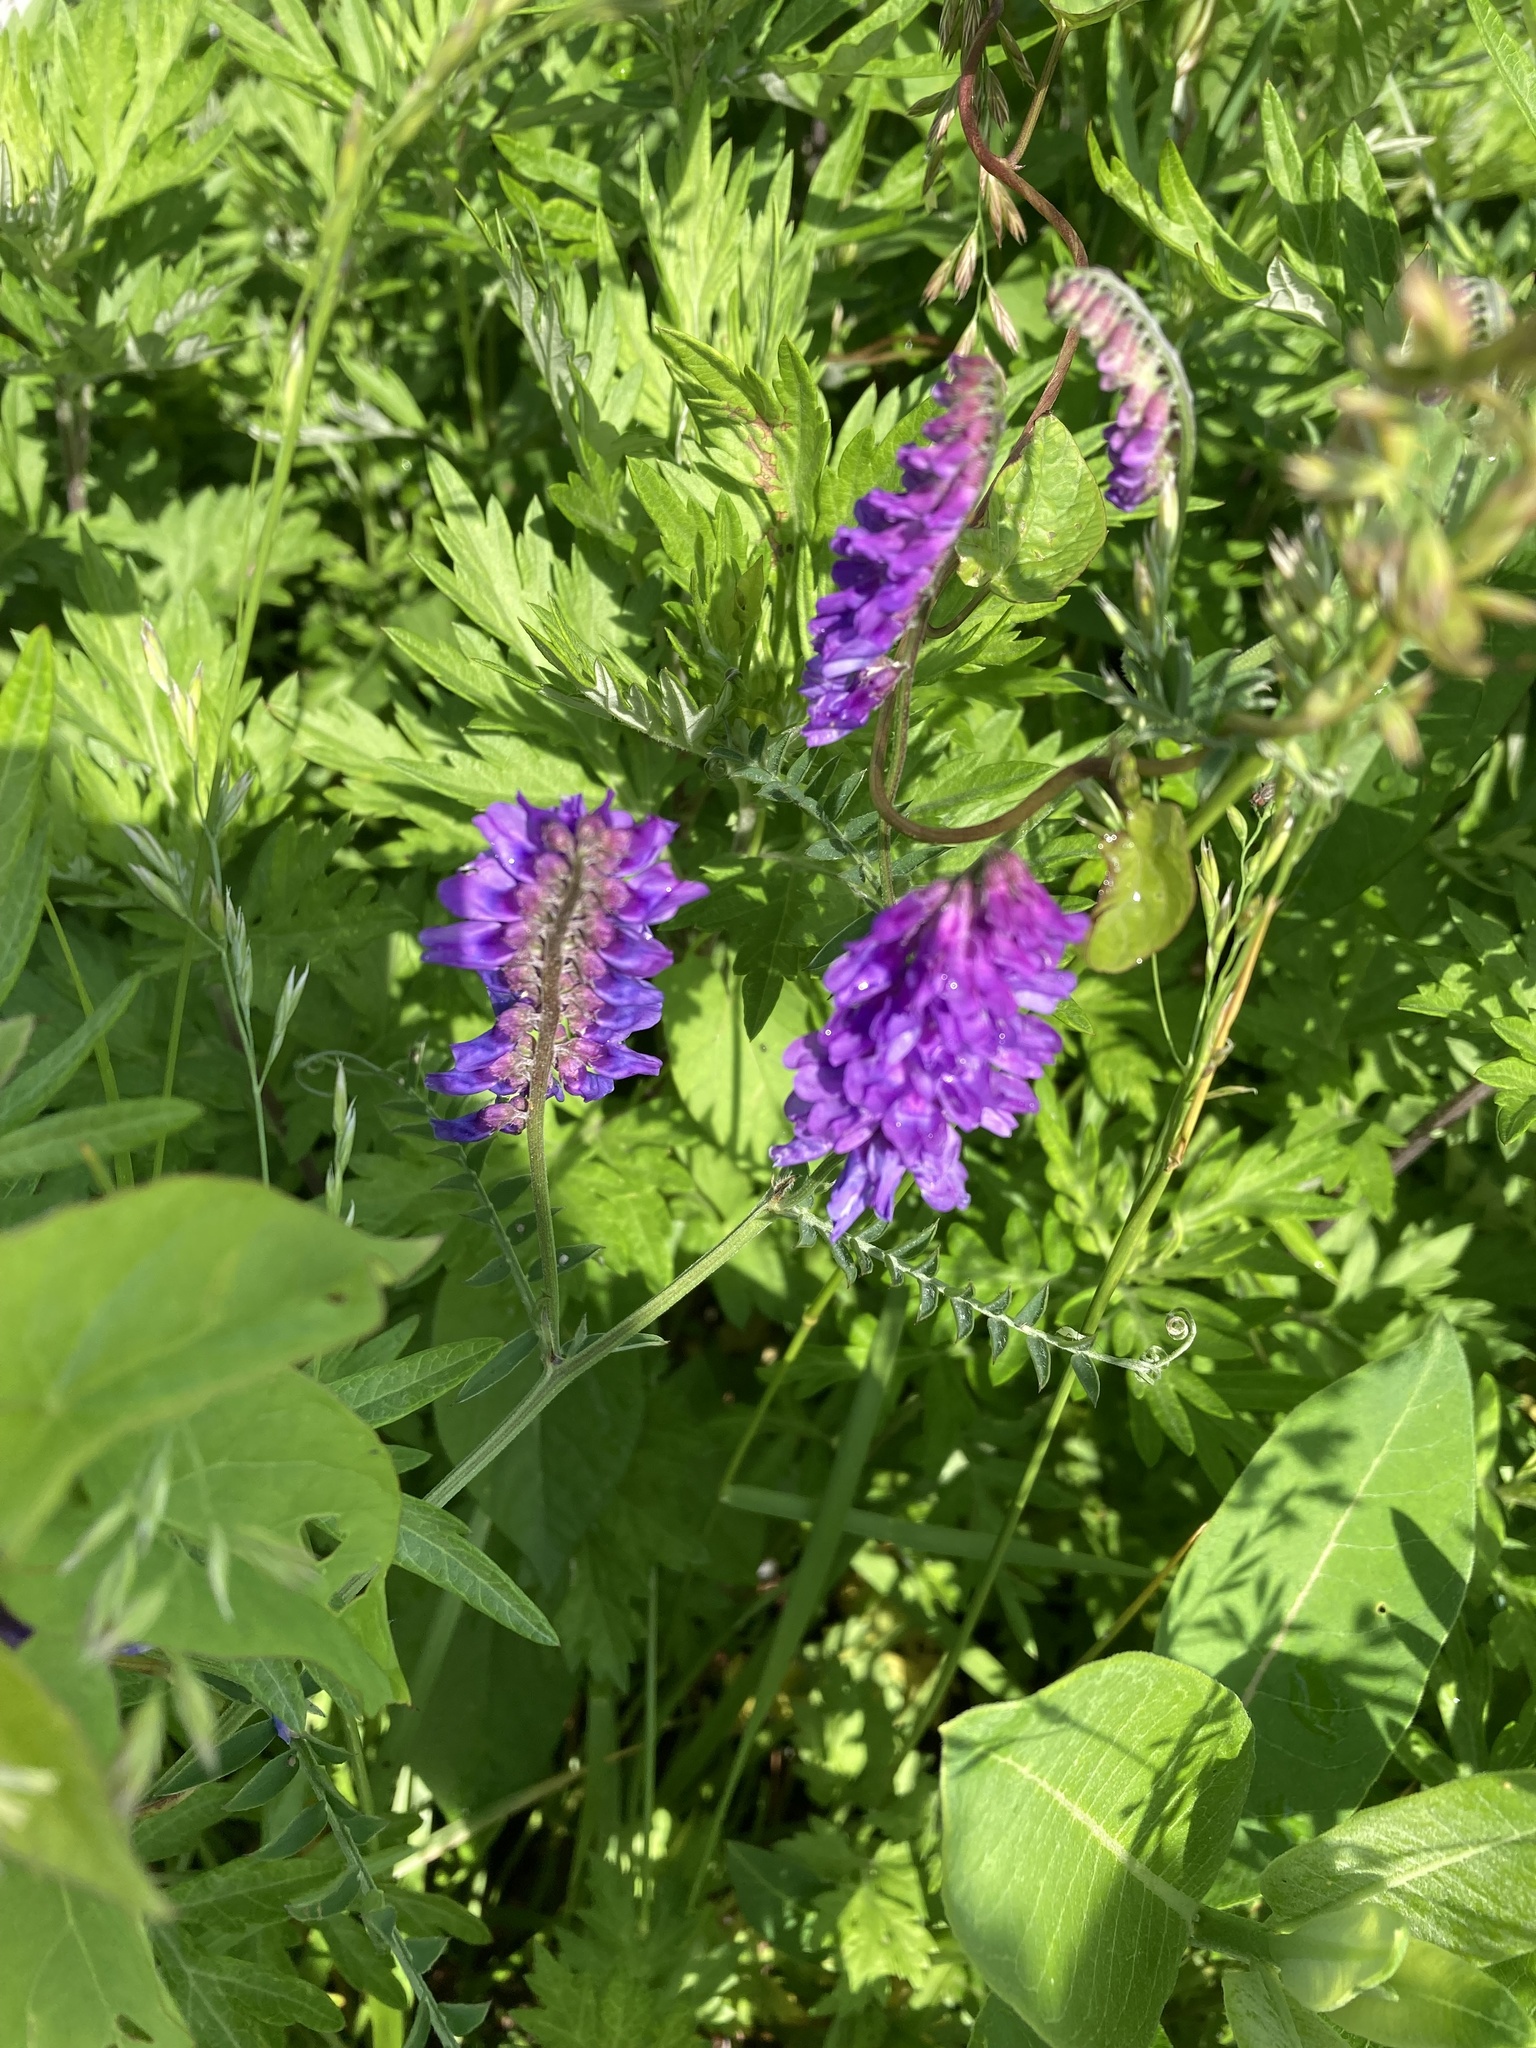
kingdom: Plantae
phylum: Tracheophyta
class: Magnoliopsida
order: Fabales
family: Fabaceae
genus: Vicia
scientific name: Vicia cracca
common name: Bird vetch
